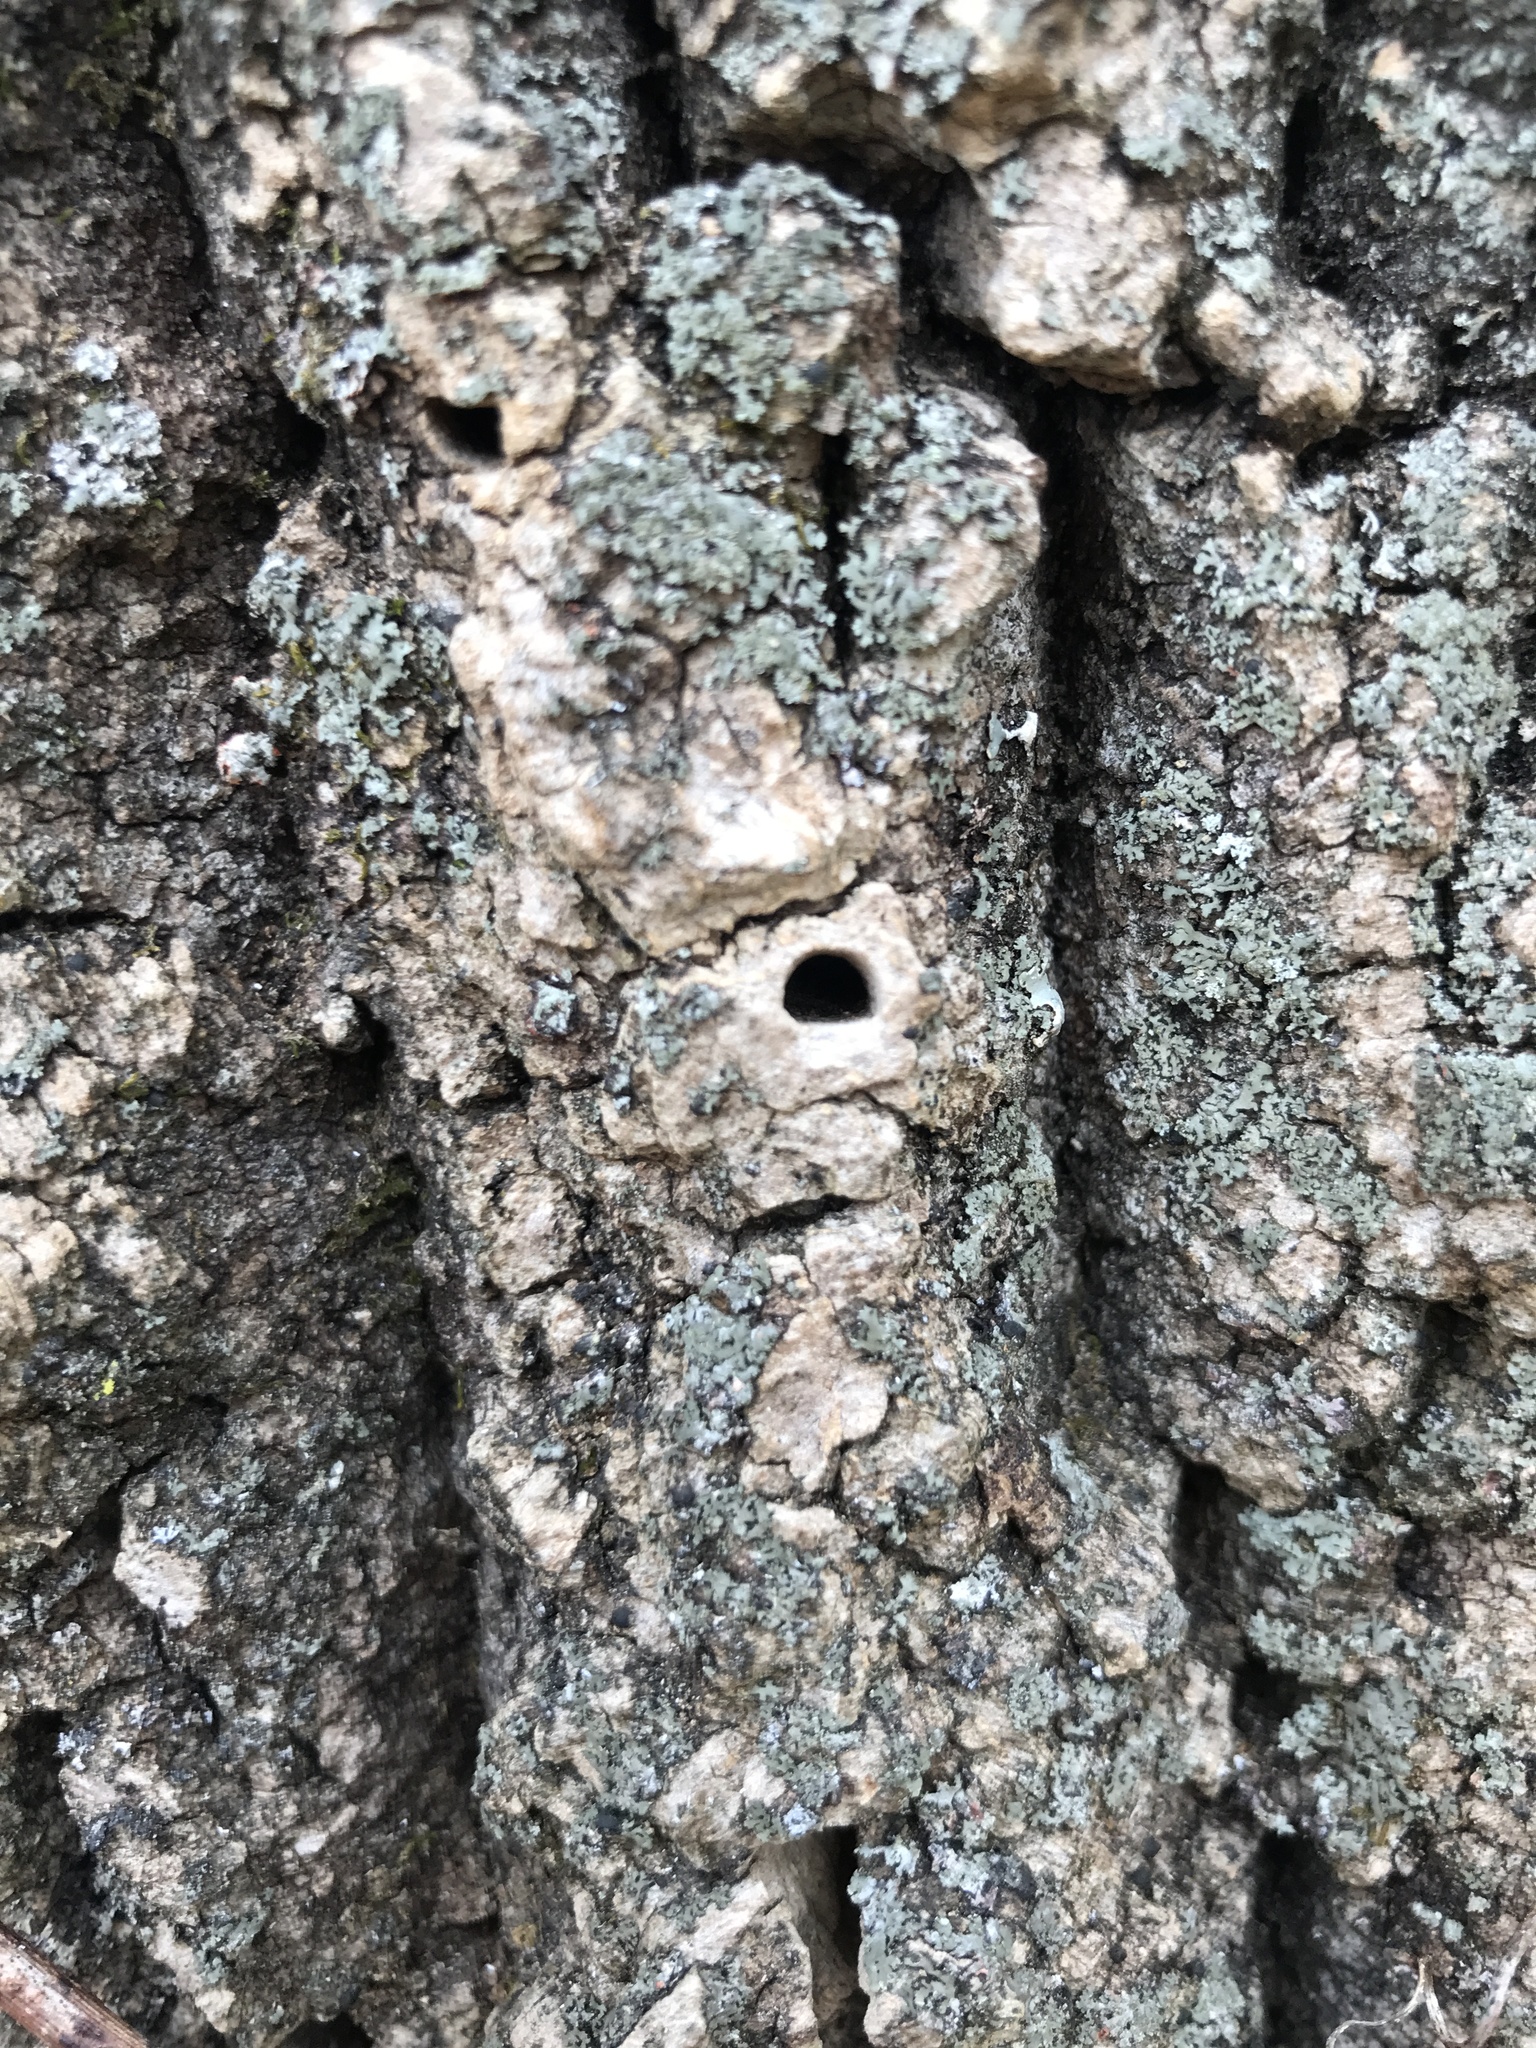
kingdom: Animalia
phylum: Arthropoda
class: Insecta
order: Coleoptera
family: Buprestidae
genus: Agrilus
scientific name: Agrilus planipennis
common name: Emerald ash borer
